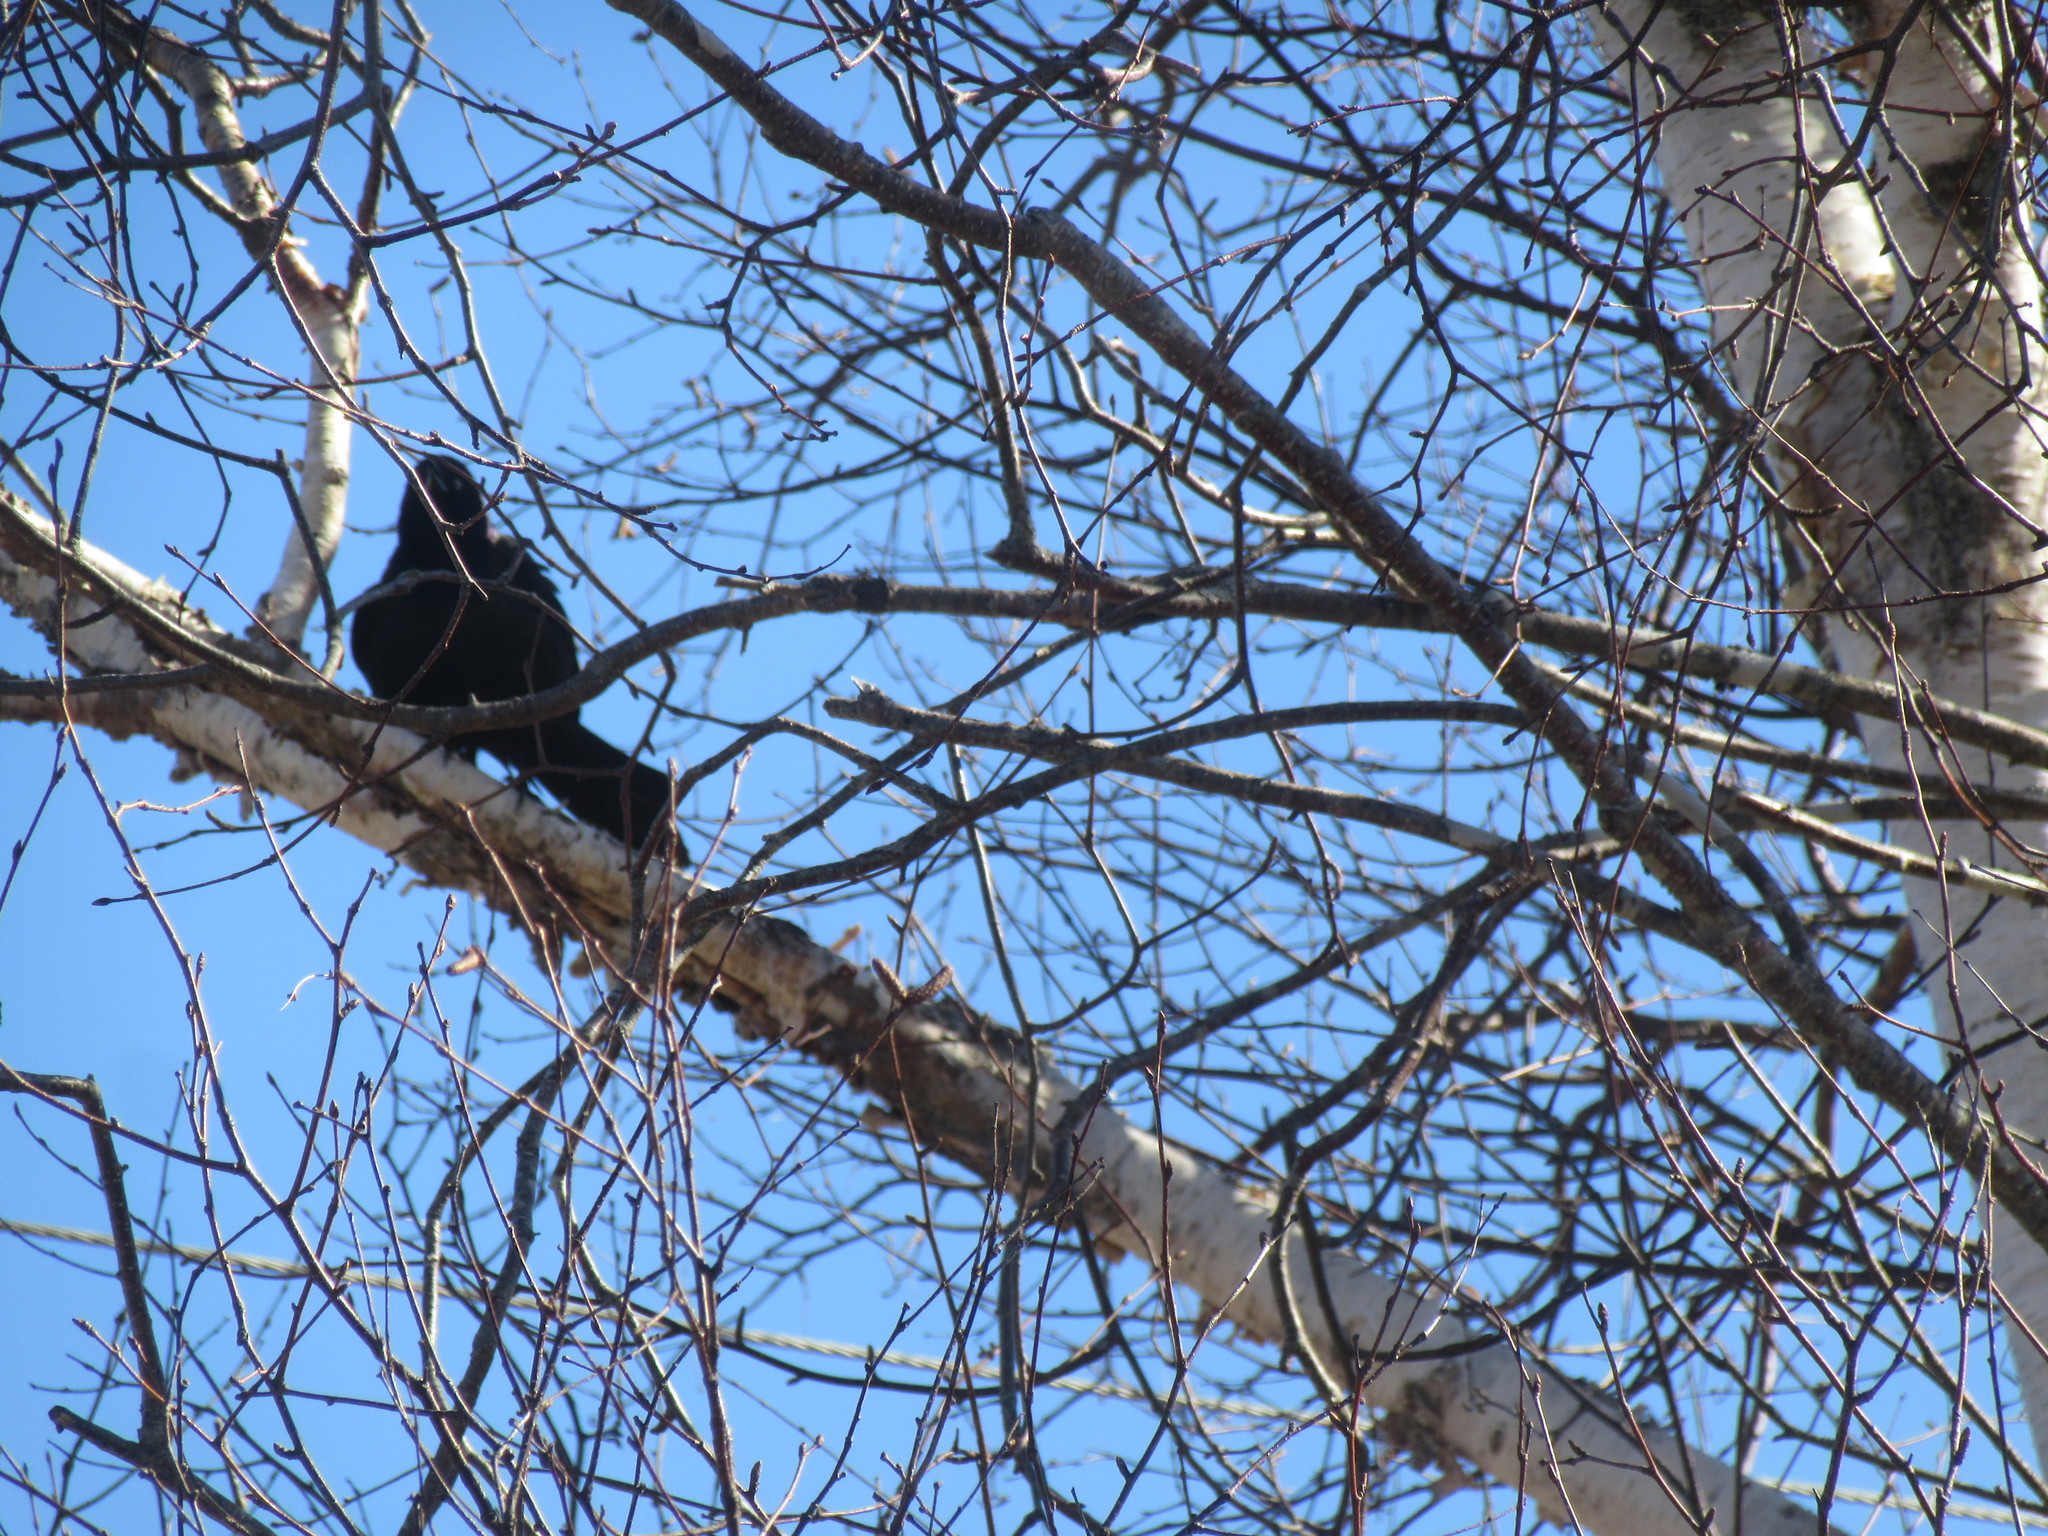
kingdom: Animalia
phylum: Chordata
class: Aves
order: Passeriformes
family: Icteridae
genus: Quiscalus
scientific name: Quiscalus quiscula
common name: Common grackle
